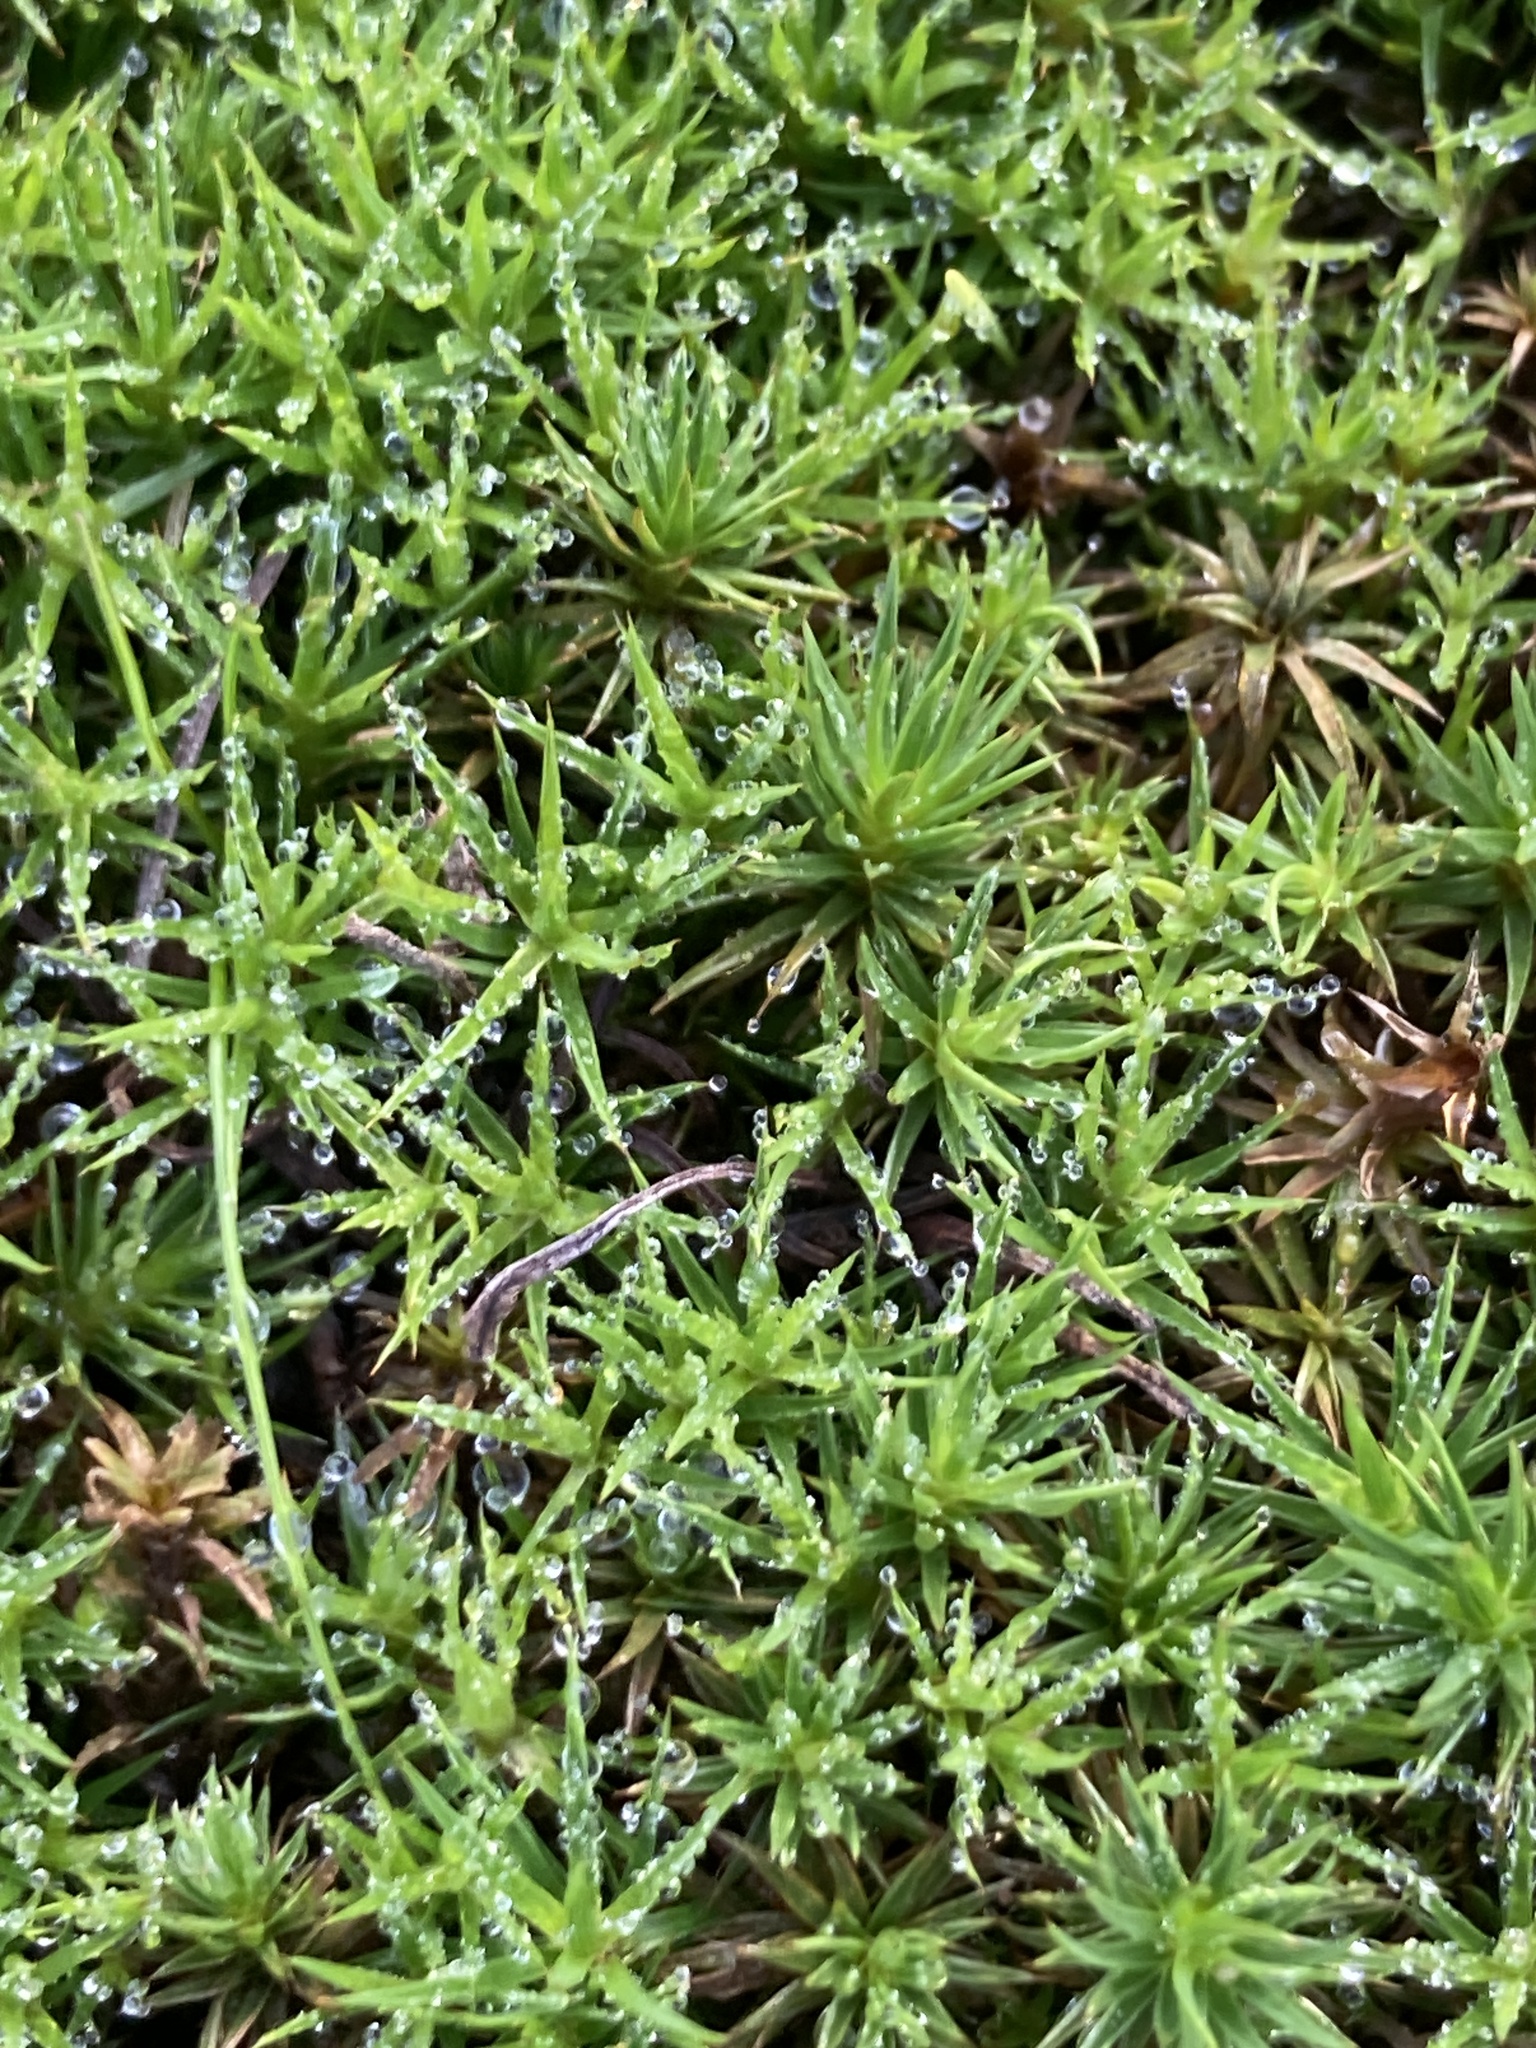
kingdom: Plantae
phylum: Bryophyta
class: Polytrichopsida
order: Polytrichales
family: Polytrichaceae
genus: Polytrichum
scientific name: Polytrichum formosum
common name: Bank haircap moss
